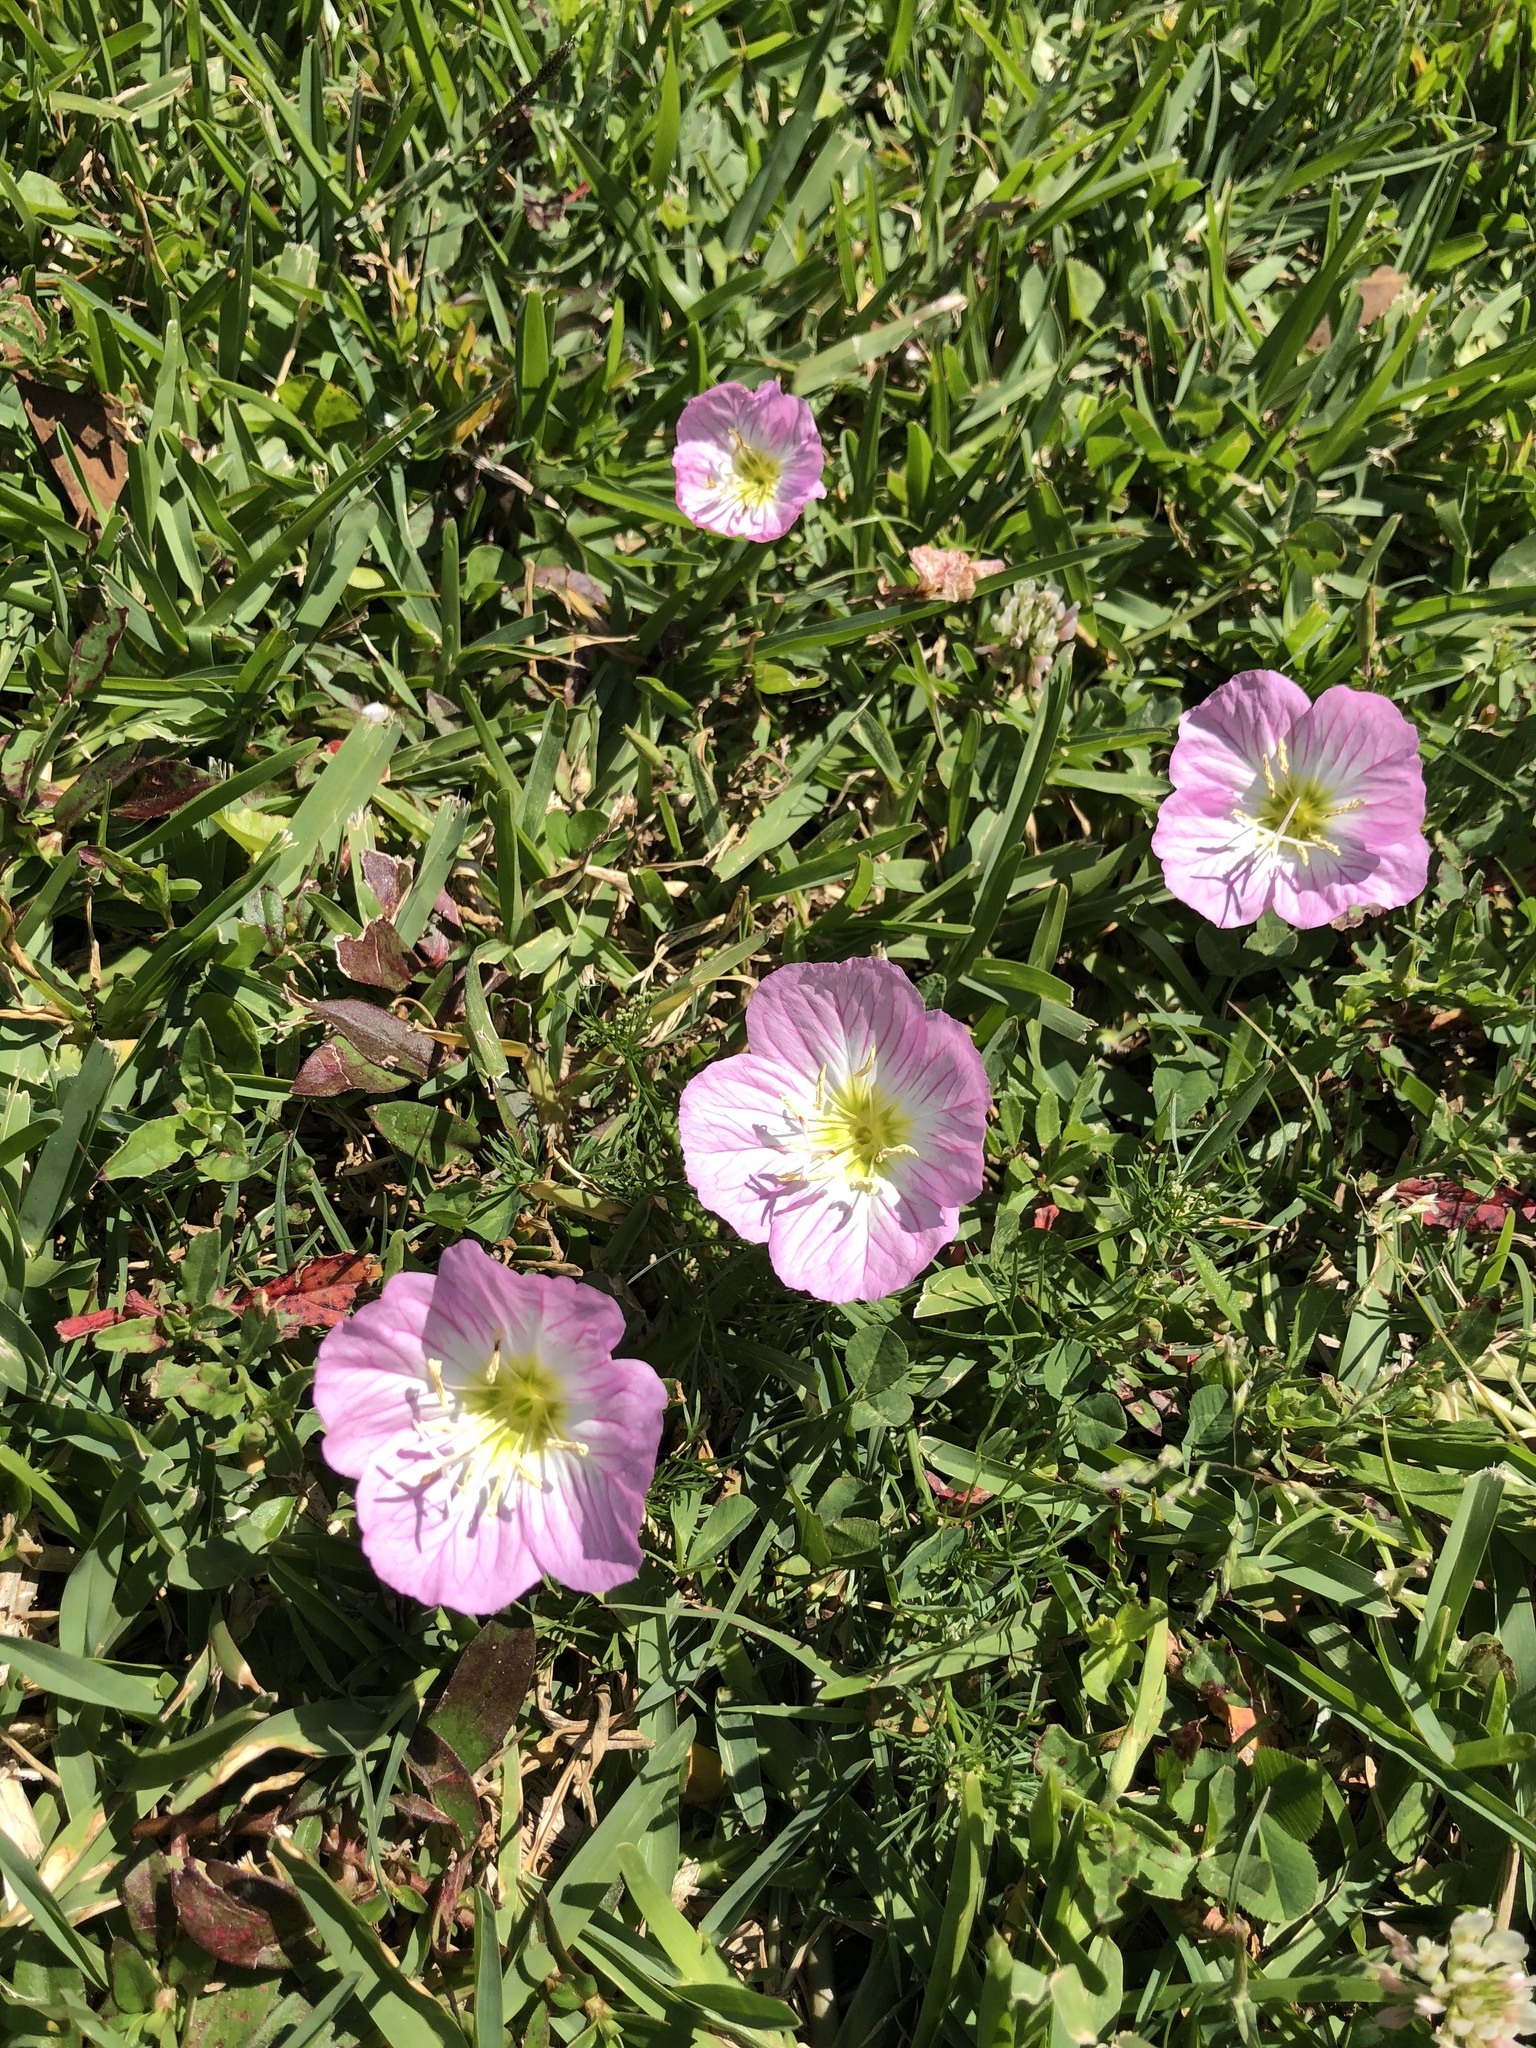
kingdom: Plantae
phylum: Tracheophyta
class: Magnoliopsida
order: Myrtales
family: Onagraceae
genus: Oenothera
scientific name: Oenothera speciosa
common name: White evening-primrose
